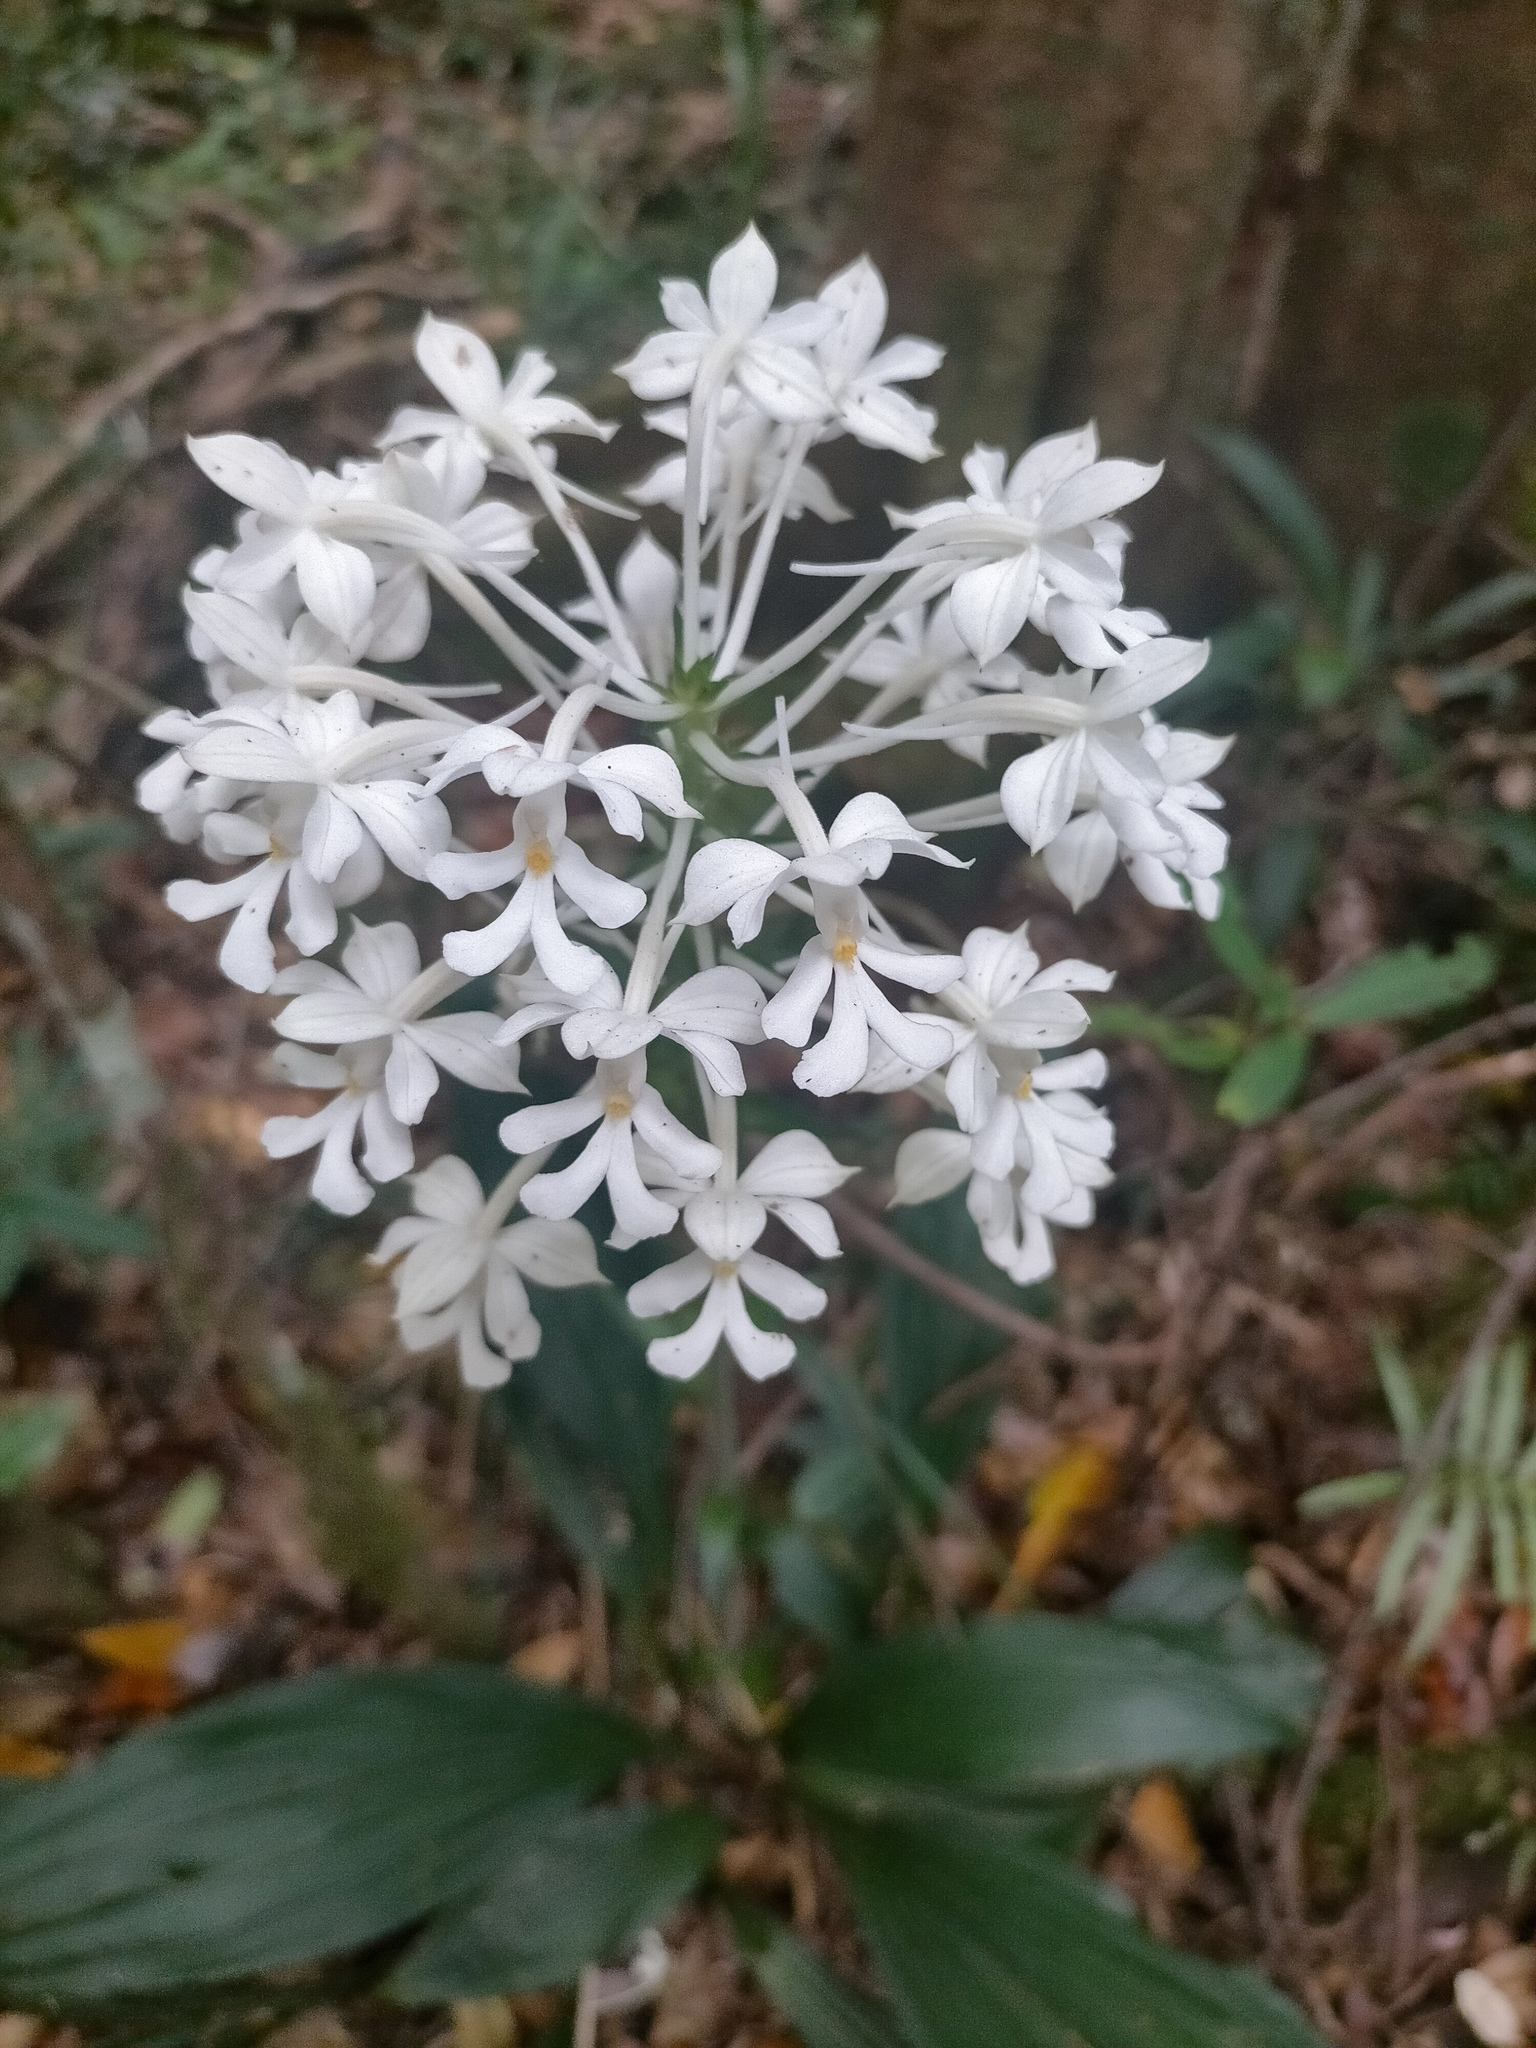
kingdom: Plantae
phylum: Tracheophyta
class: Liliopsida
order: Asparagales
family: Orchidaceae
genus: Calanthe
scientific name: Calanthe triplicata
